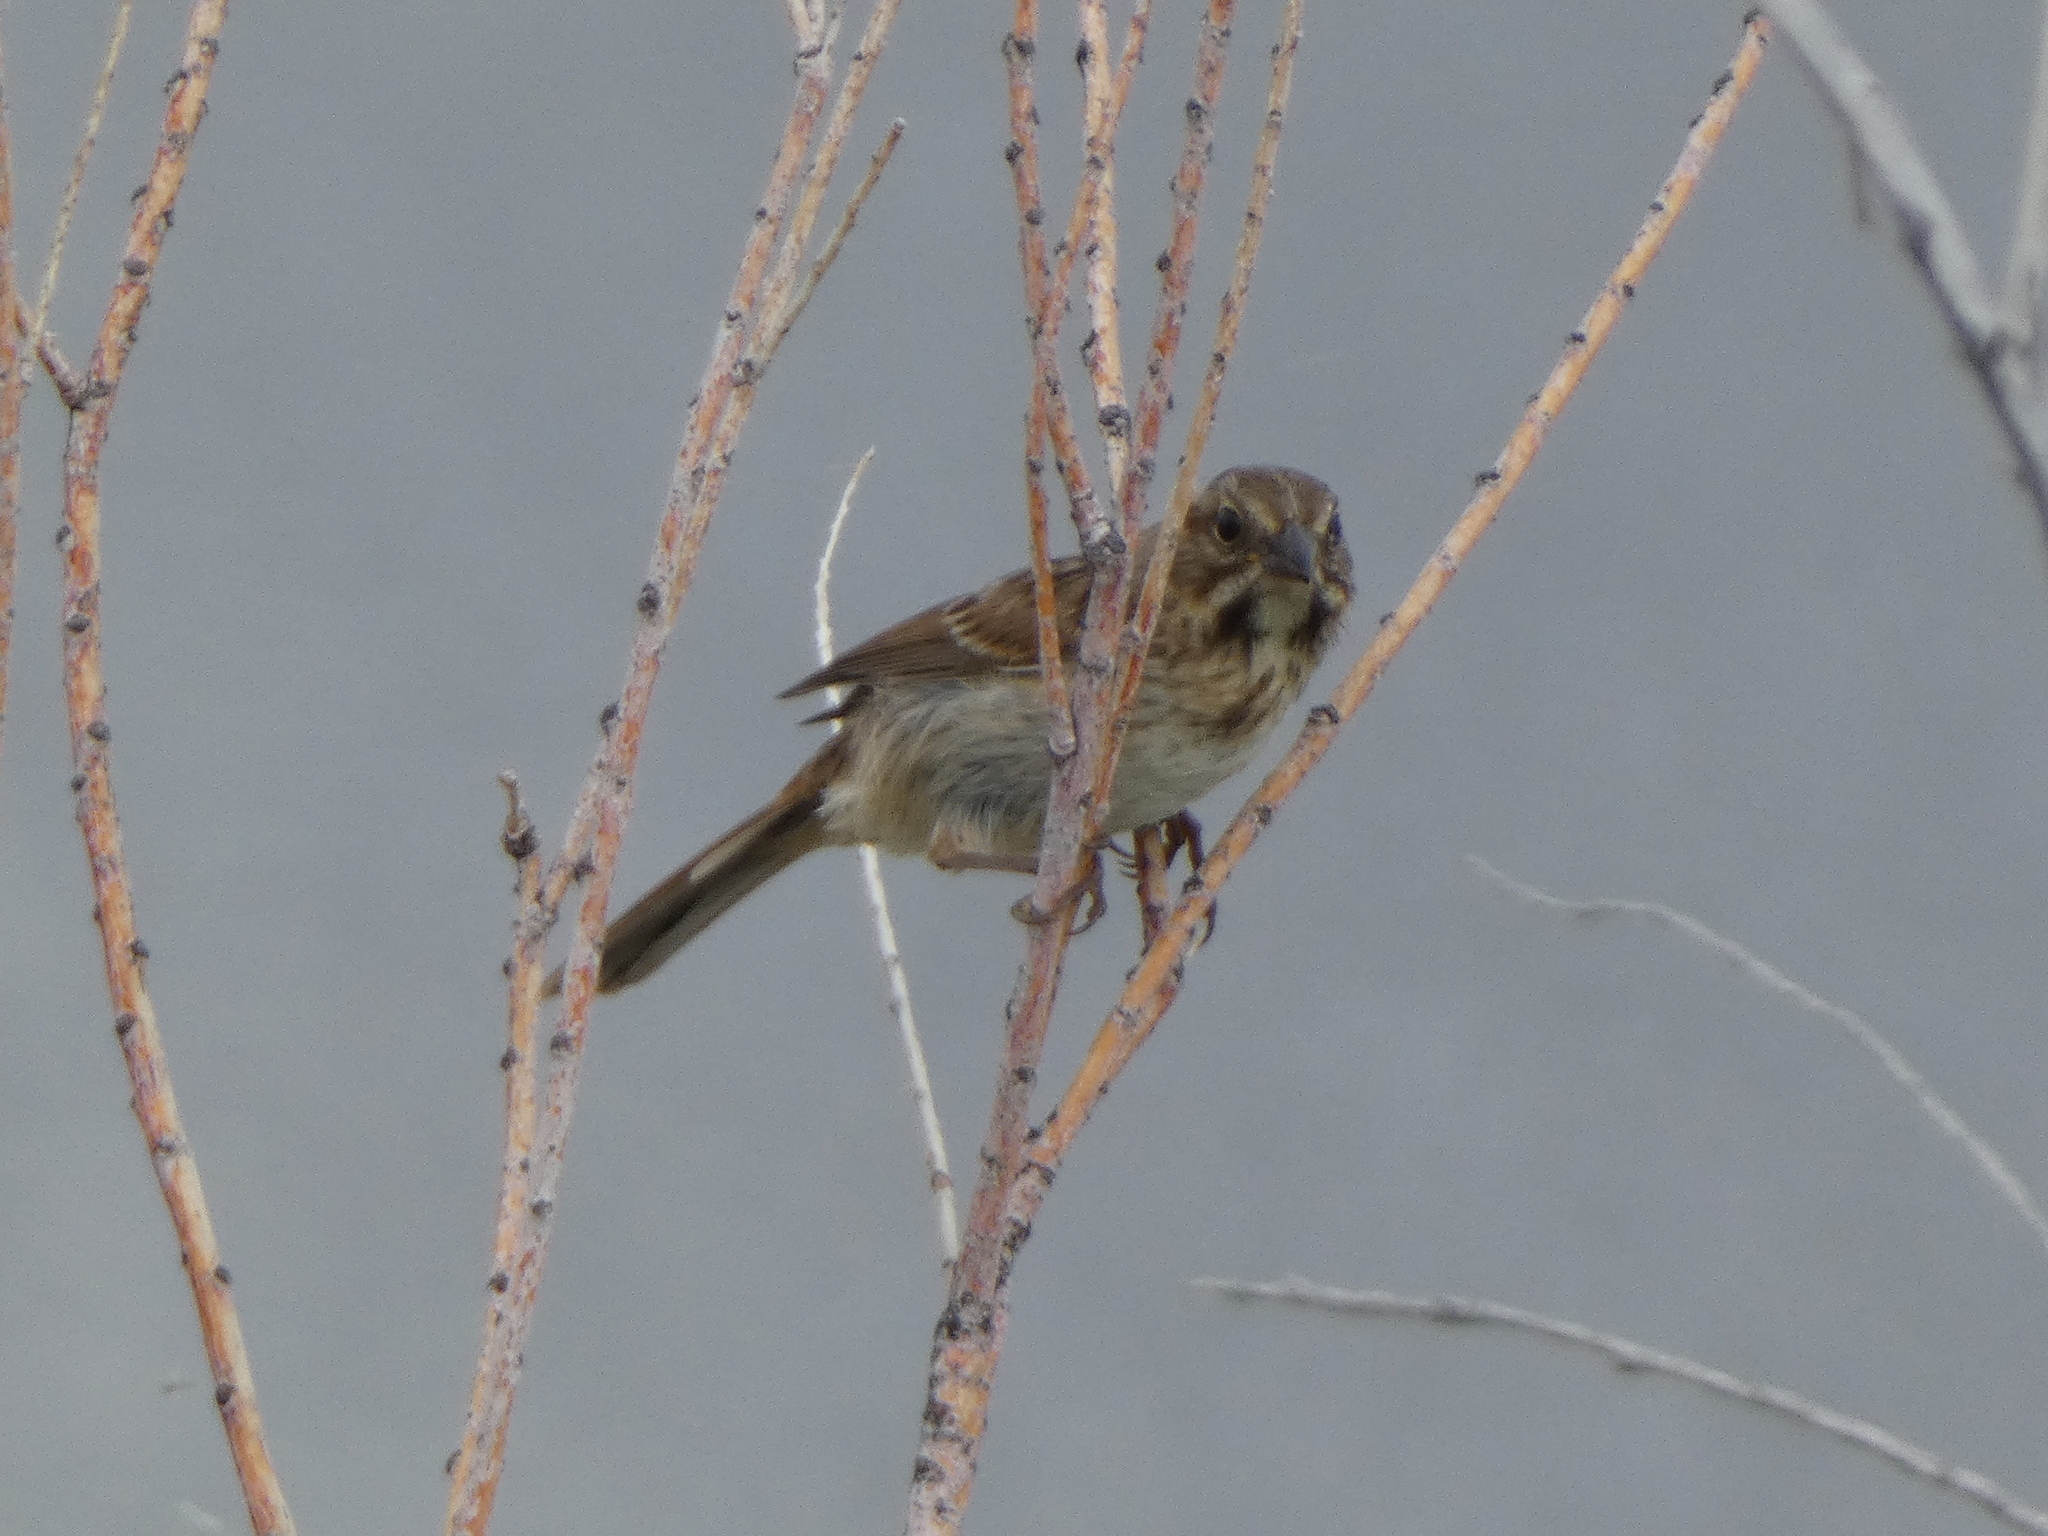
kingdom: Animalia
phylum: Chordata
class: Aves
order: Passeriformes
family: Passerellidae
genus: Melospiza
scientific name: Melospiza melodia
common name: Song sparrow
